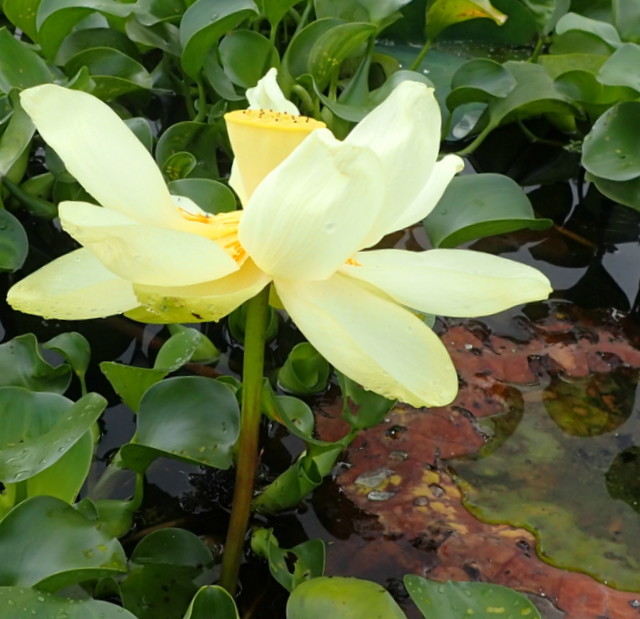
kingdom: Plantae
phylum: Tracheophyta
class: Magnoliopsida
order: Proteales
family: Nelumbonaceae
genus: Nelumbo
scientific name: Nelumbo lutea
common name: American lotus
